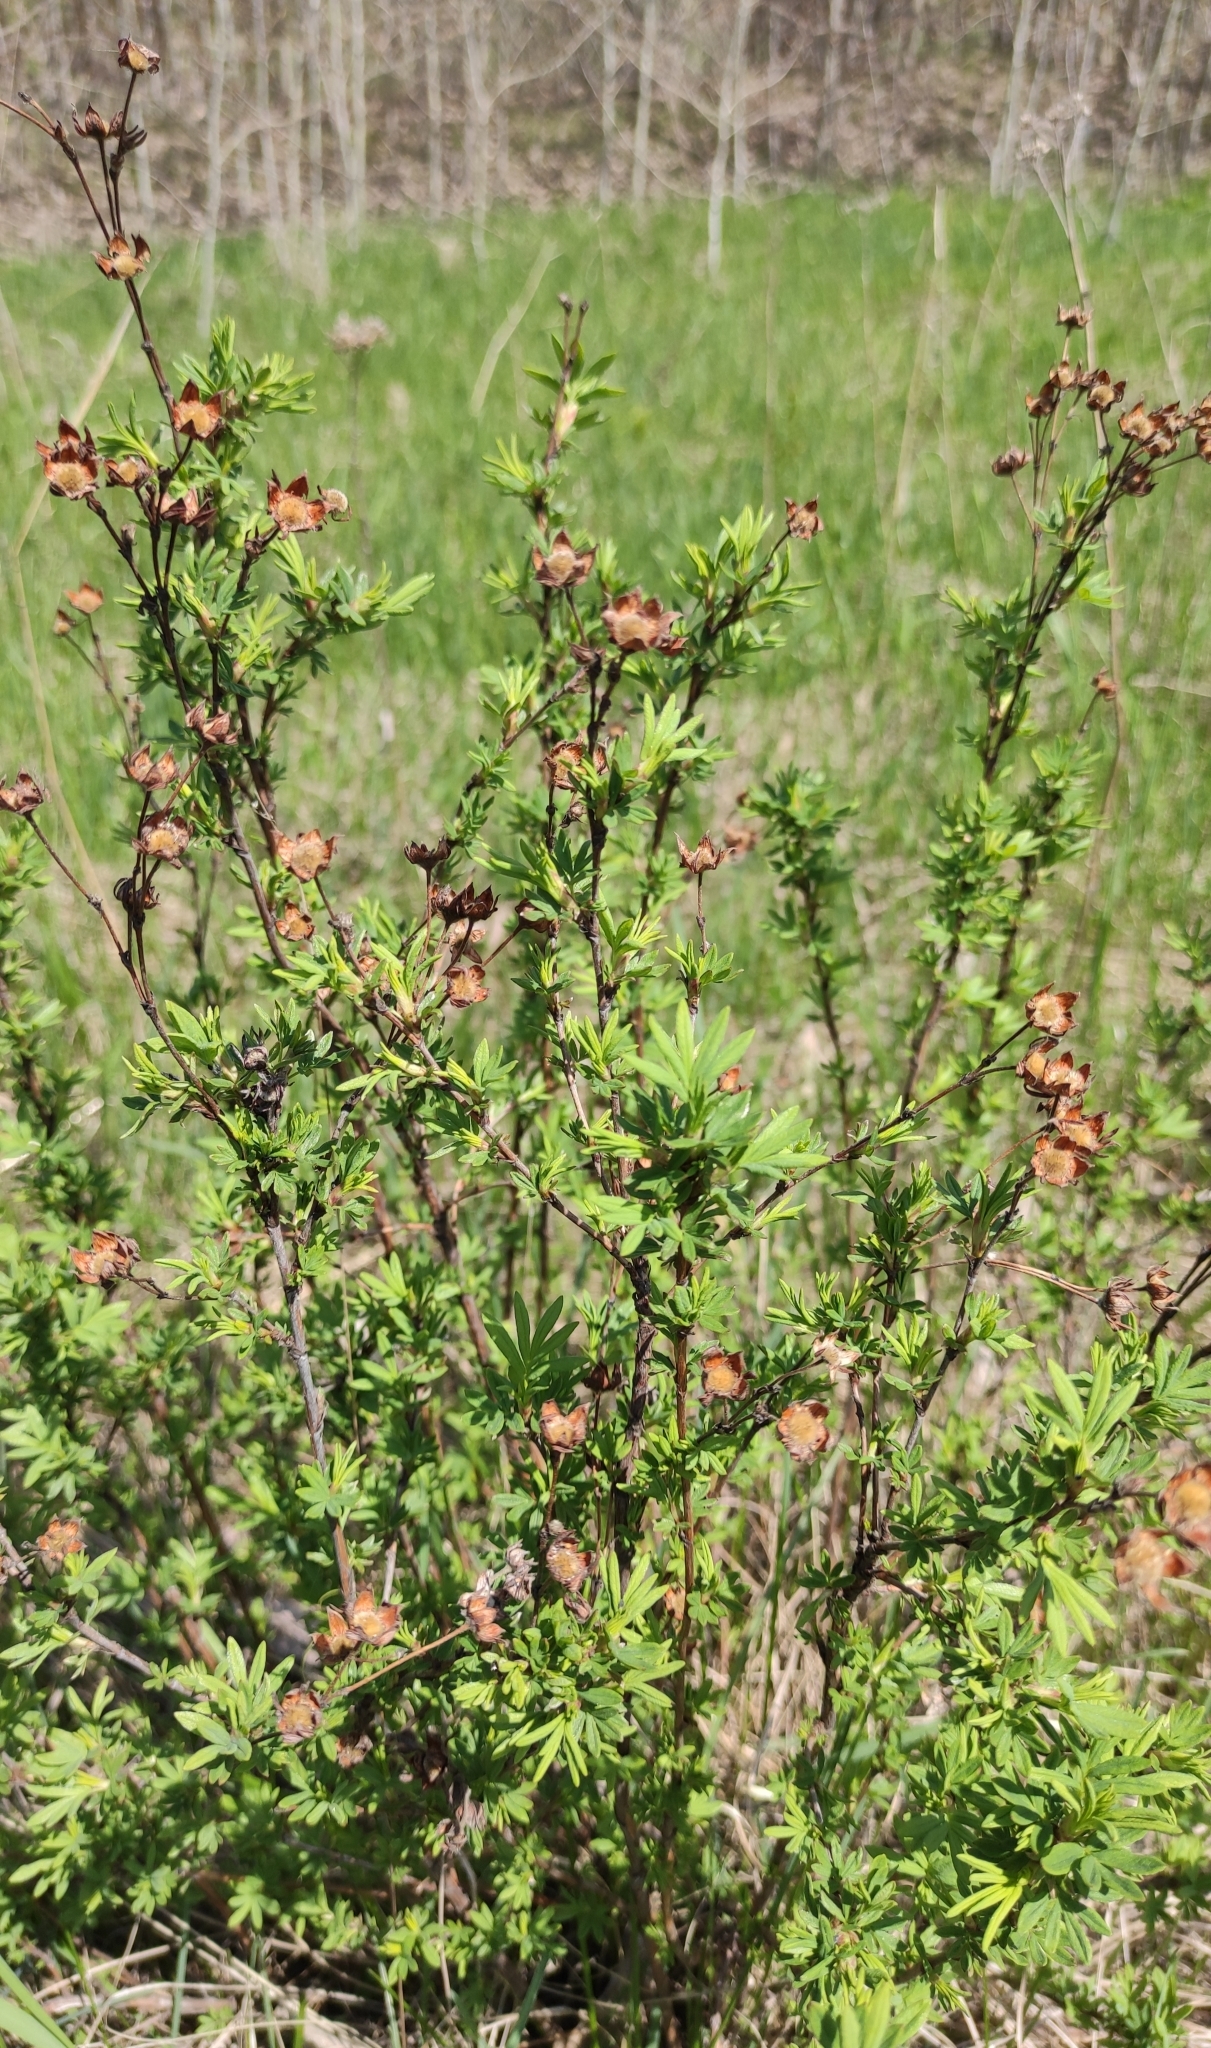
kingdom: Plantae
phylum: Tracheophyta
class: Magnoliopsida
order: Rosales
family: Rosaceae
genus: Dasiphora
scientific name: Dasiphora fruticosa
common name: Shrubby cinquefoil
